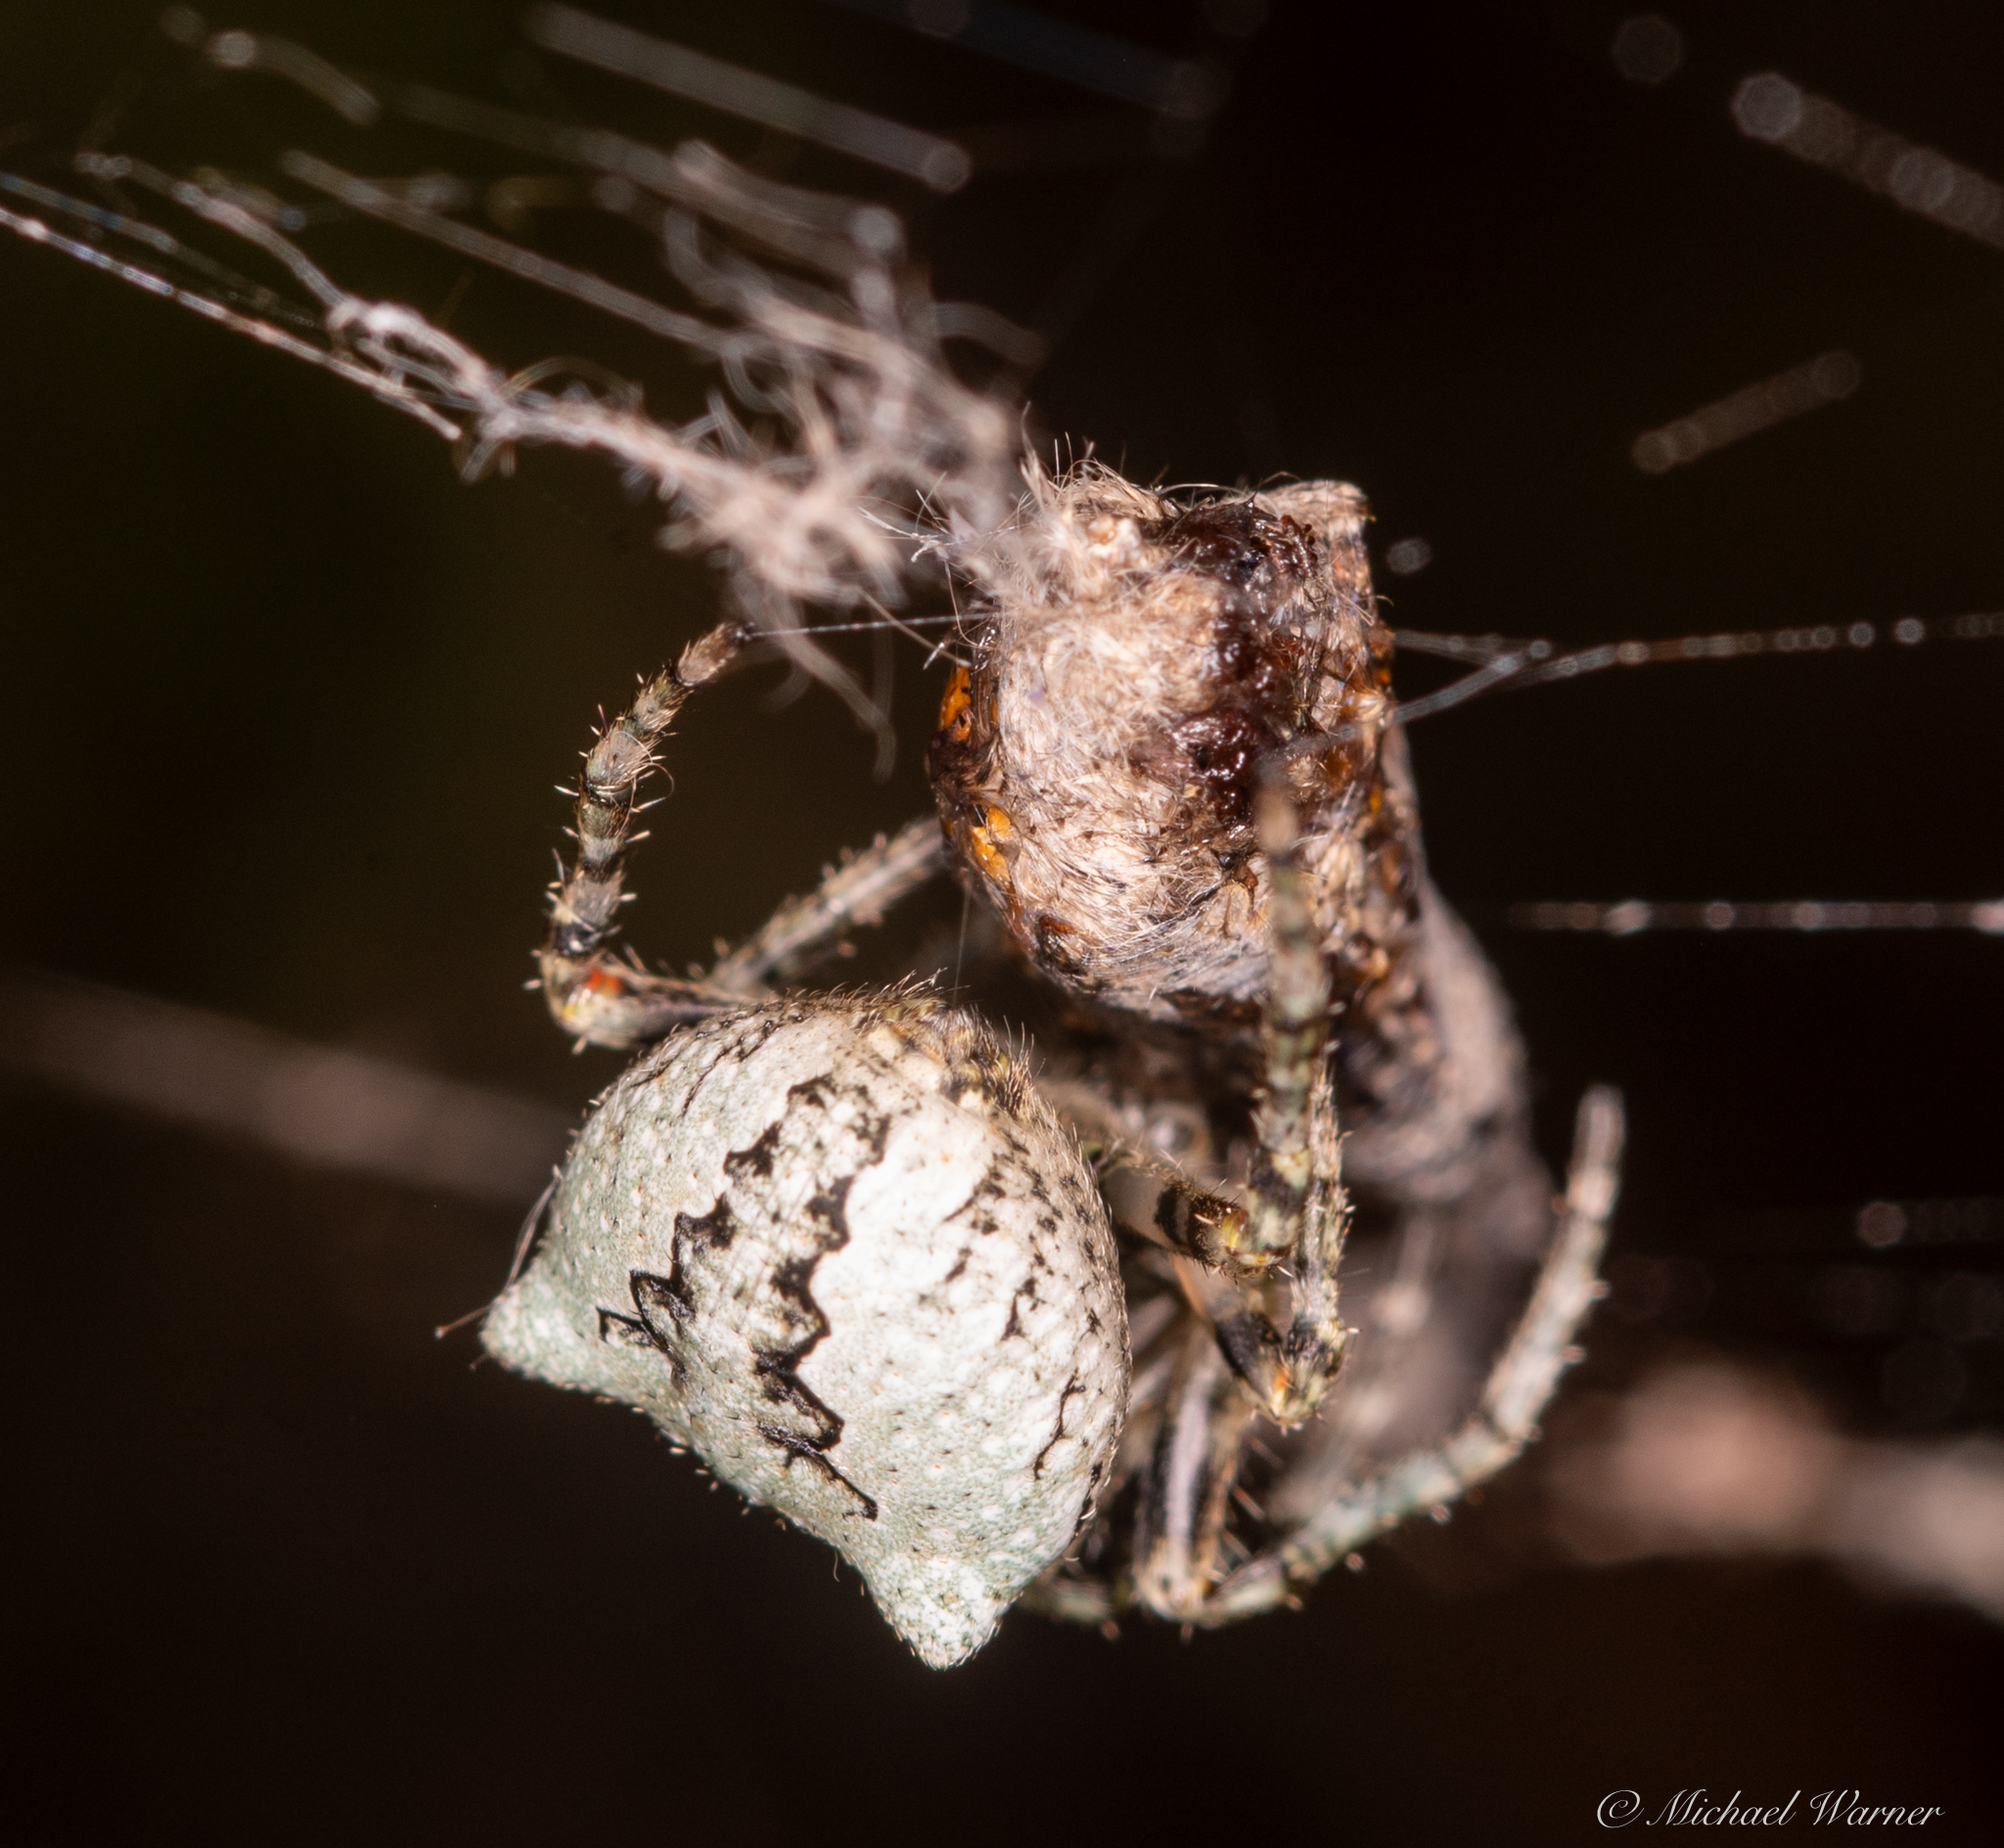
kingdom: Animalia
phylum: Arthropoda
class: Arachnida
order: Araneae
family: Araneidae
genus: Araneus
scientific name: Araneus andrewsi
